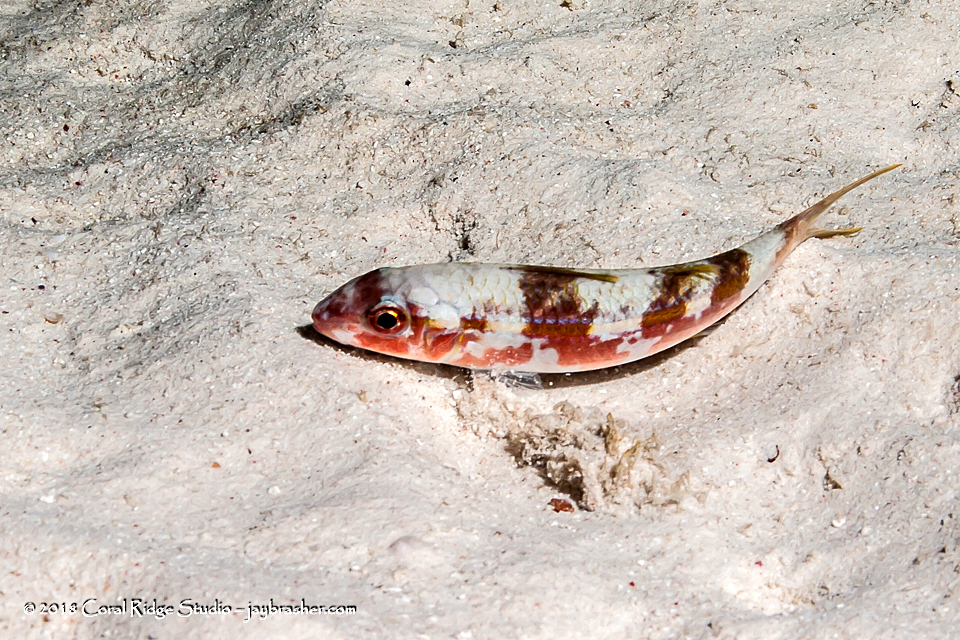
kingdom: Animalia
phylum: Chordata
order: Perciformes
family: Mullidae
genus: Pseudupeneus
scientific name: Pseudupeneus maculatus
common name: Spotted goatfish
